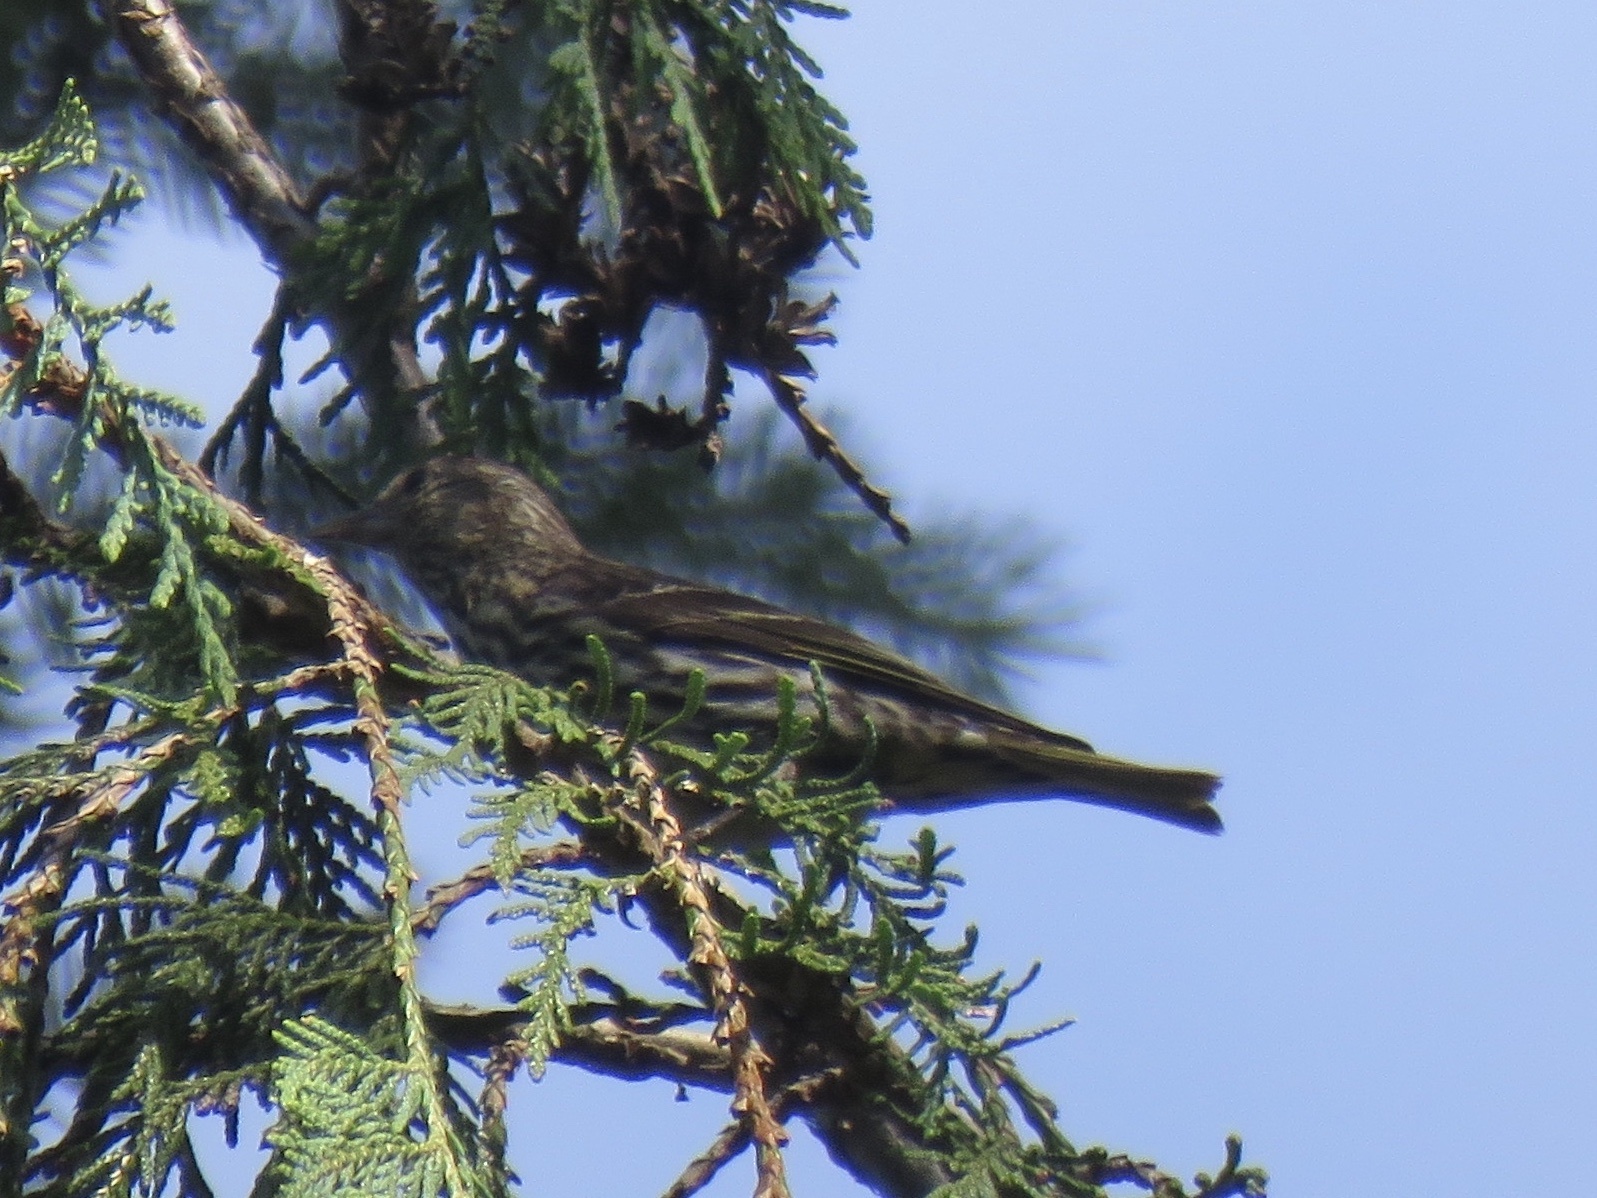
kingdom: Animalia
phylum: Chordata
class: Aves
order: Passeriformes
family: Fringillidae
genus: Spinus
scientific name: Spinus pinus
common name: Pine siskin
